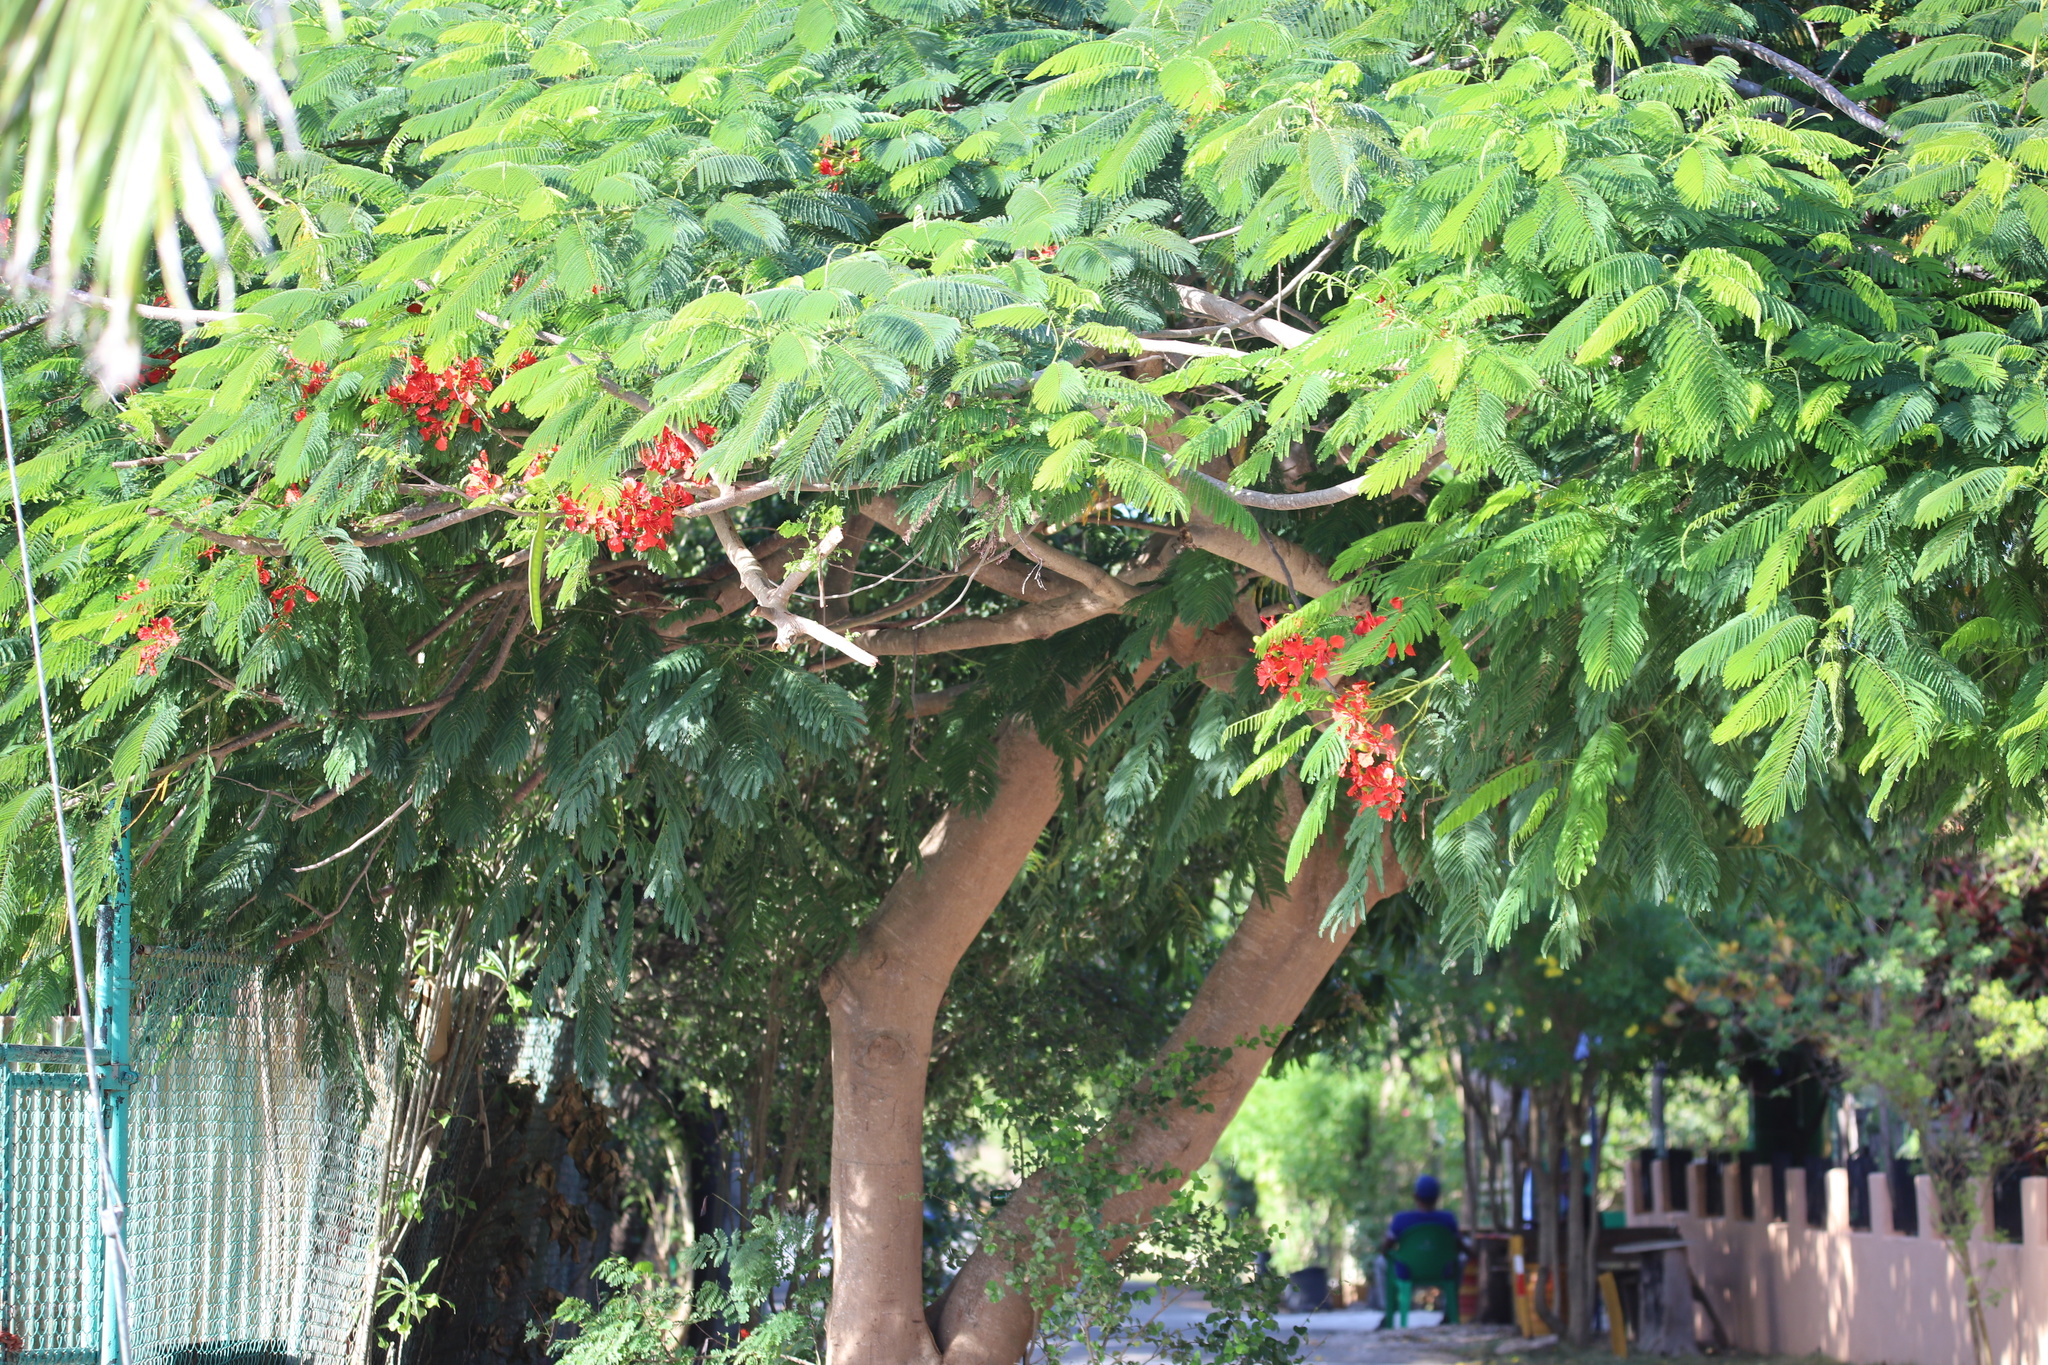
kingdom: Plantae
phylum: Tracheophyta
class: Magnoliopsida
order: Fabales
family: Fabaceae
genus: Delonix
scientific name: Delonix regia
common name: Royal poinciana
